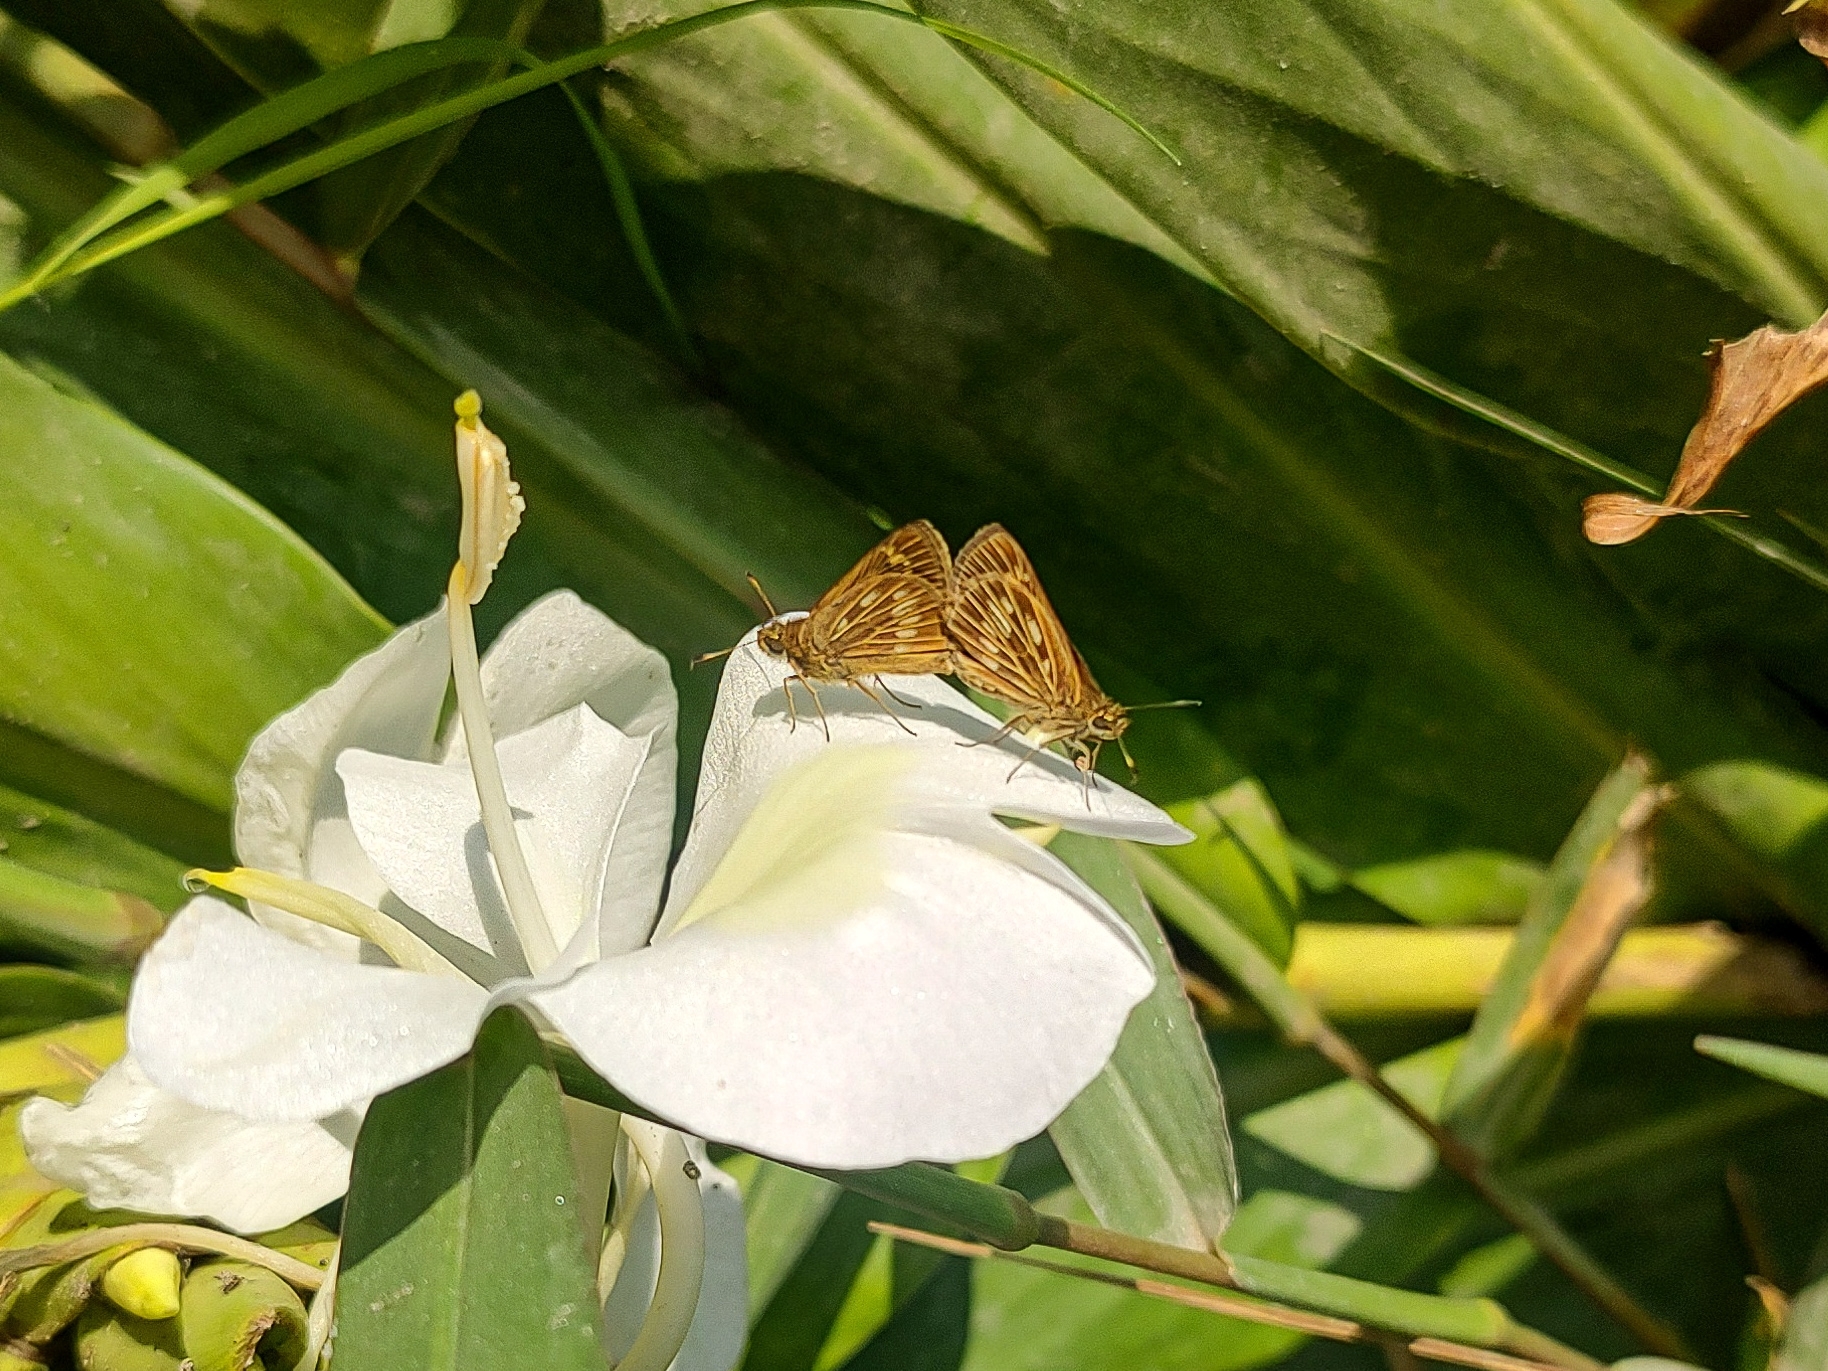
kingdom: Animalia
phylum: Arthropoda
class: Insecta
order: Lepidoptera
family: Hesperiidae
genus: Nastra
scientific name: Nastra
